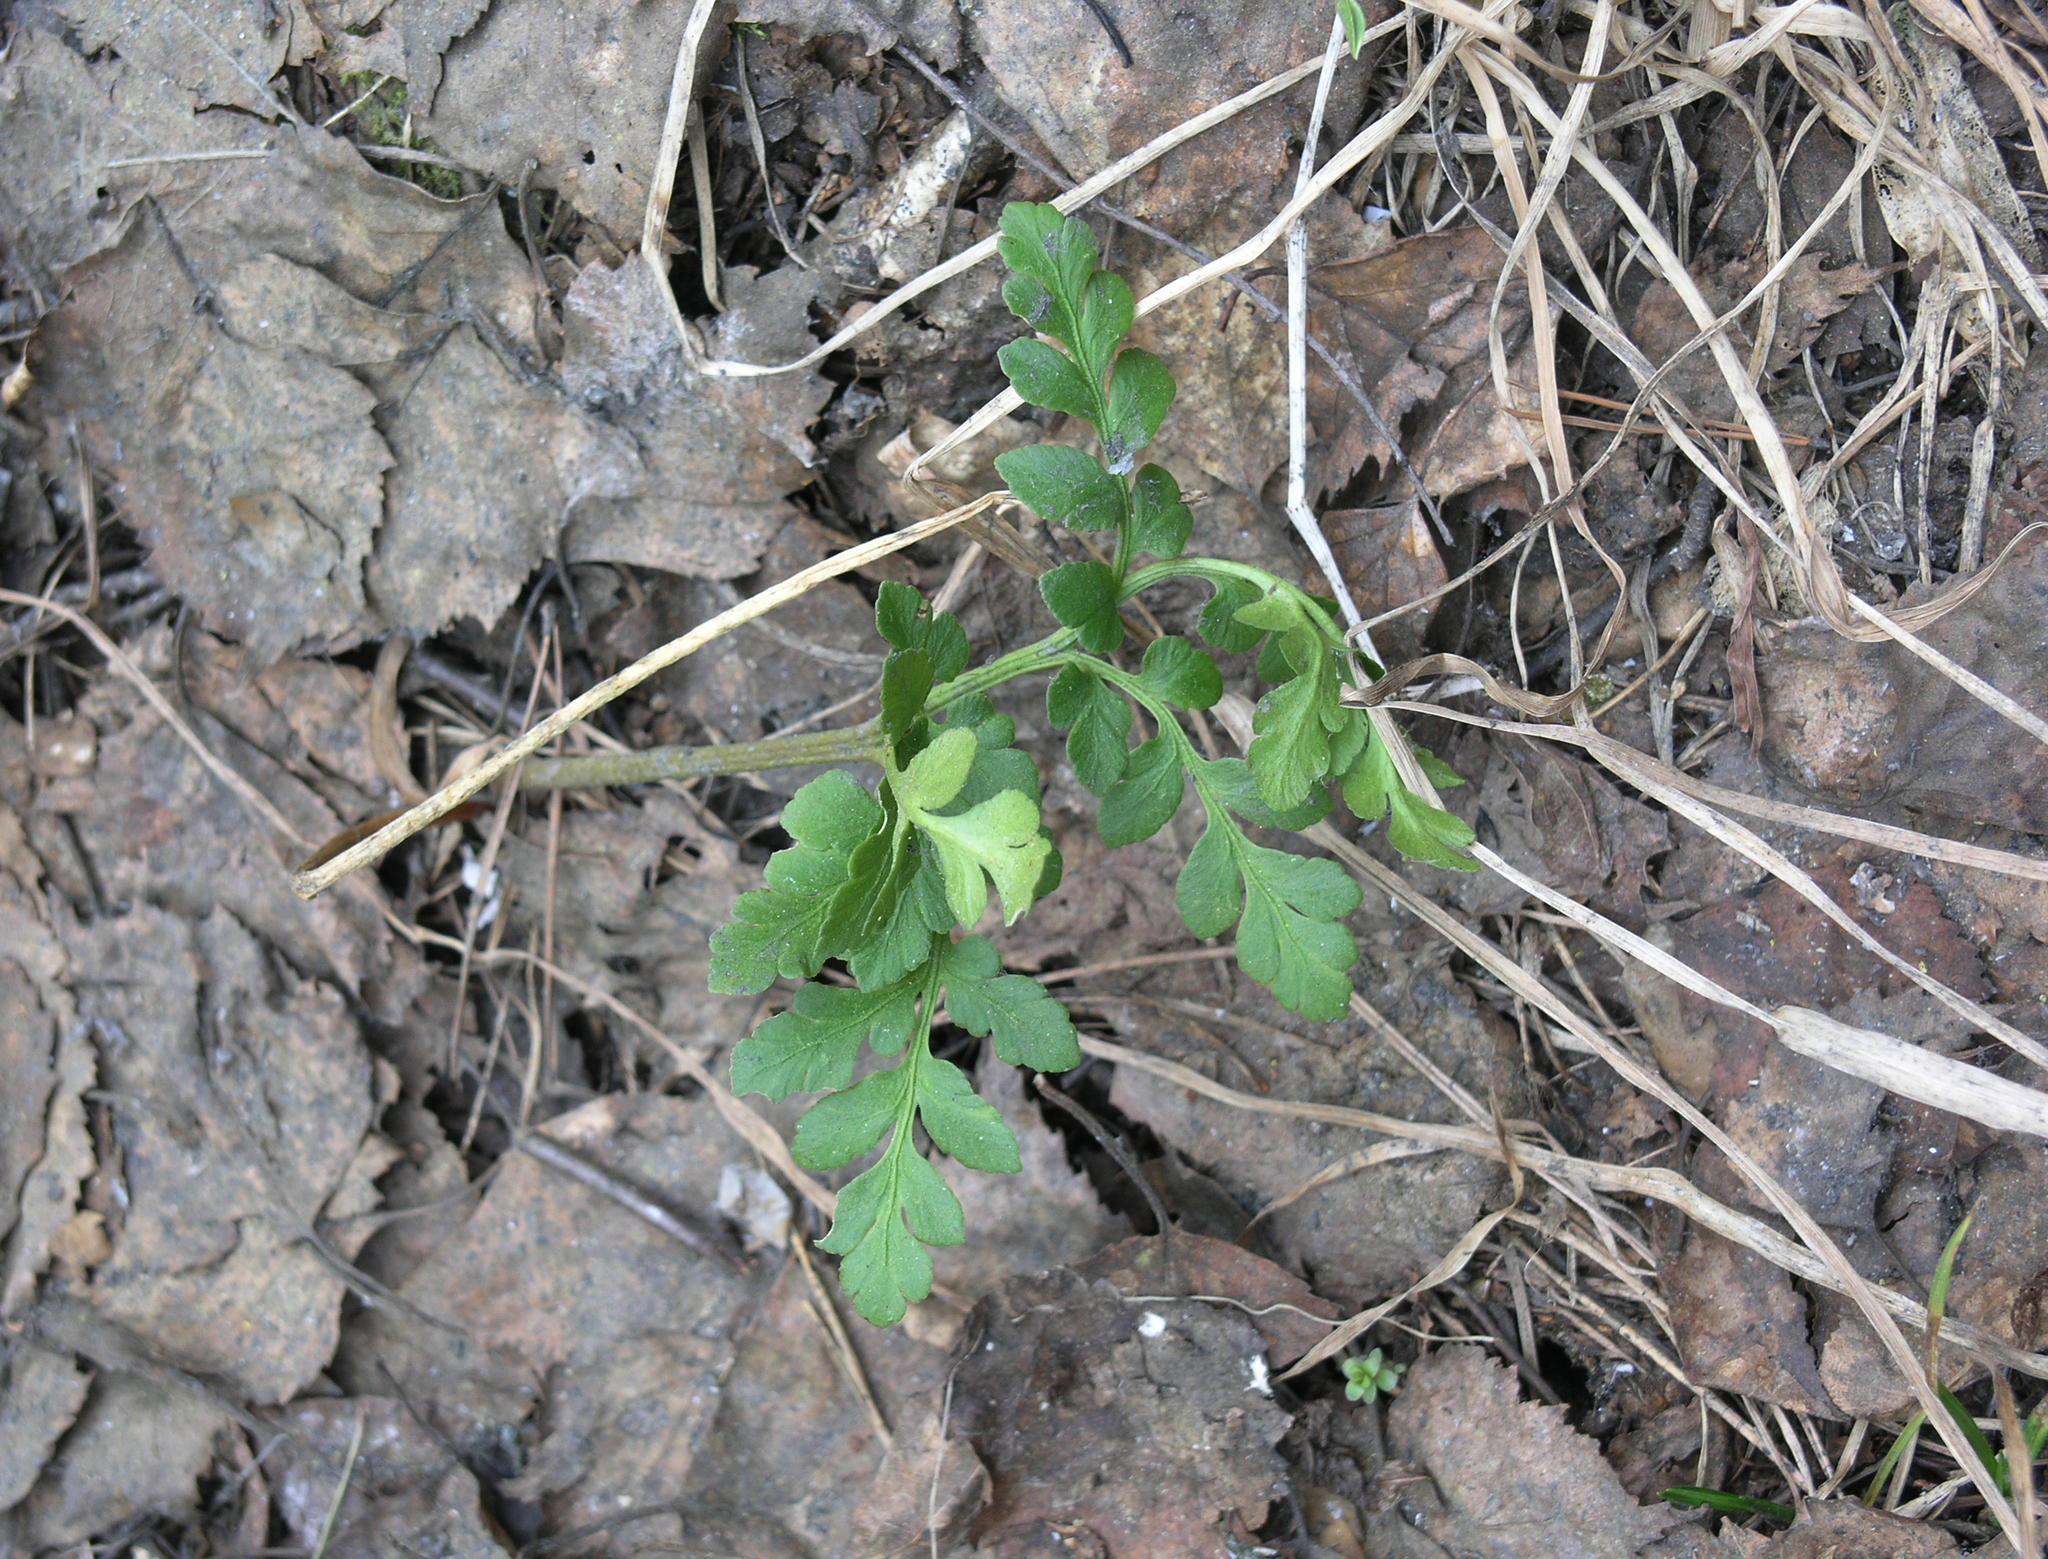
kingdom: Plantae
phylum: Tracheophyta
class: Polypodiopsida
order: Ophioglossales
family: Ophioglossaceae
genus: Sceptridium
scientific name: Sceptridium multifidum
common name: Leathery grape fern
